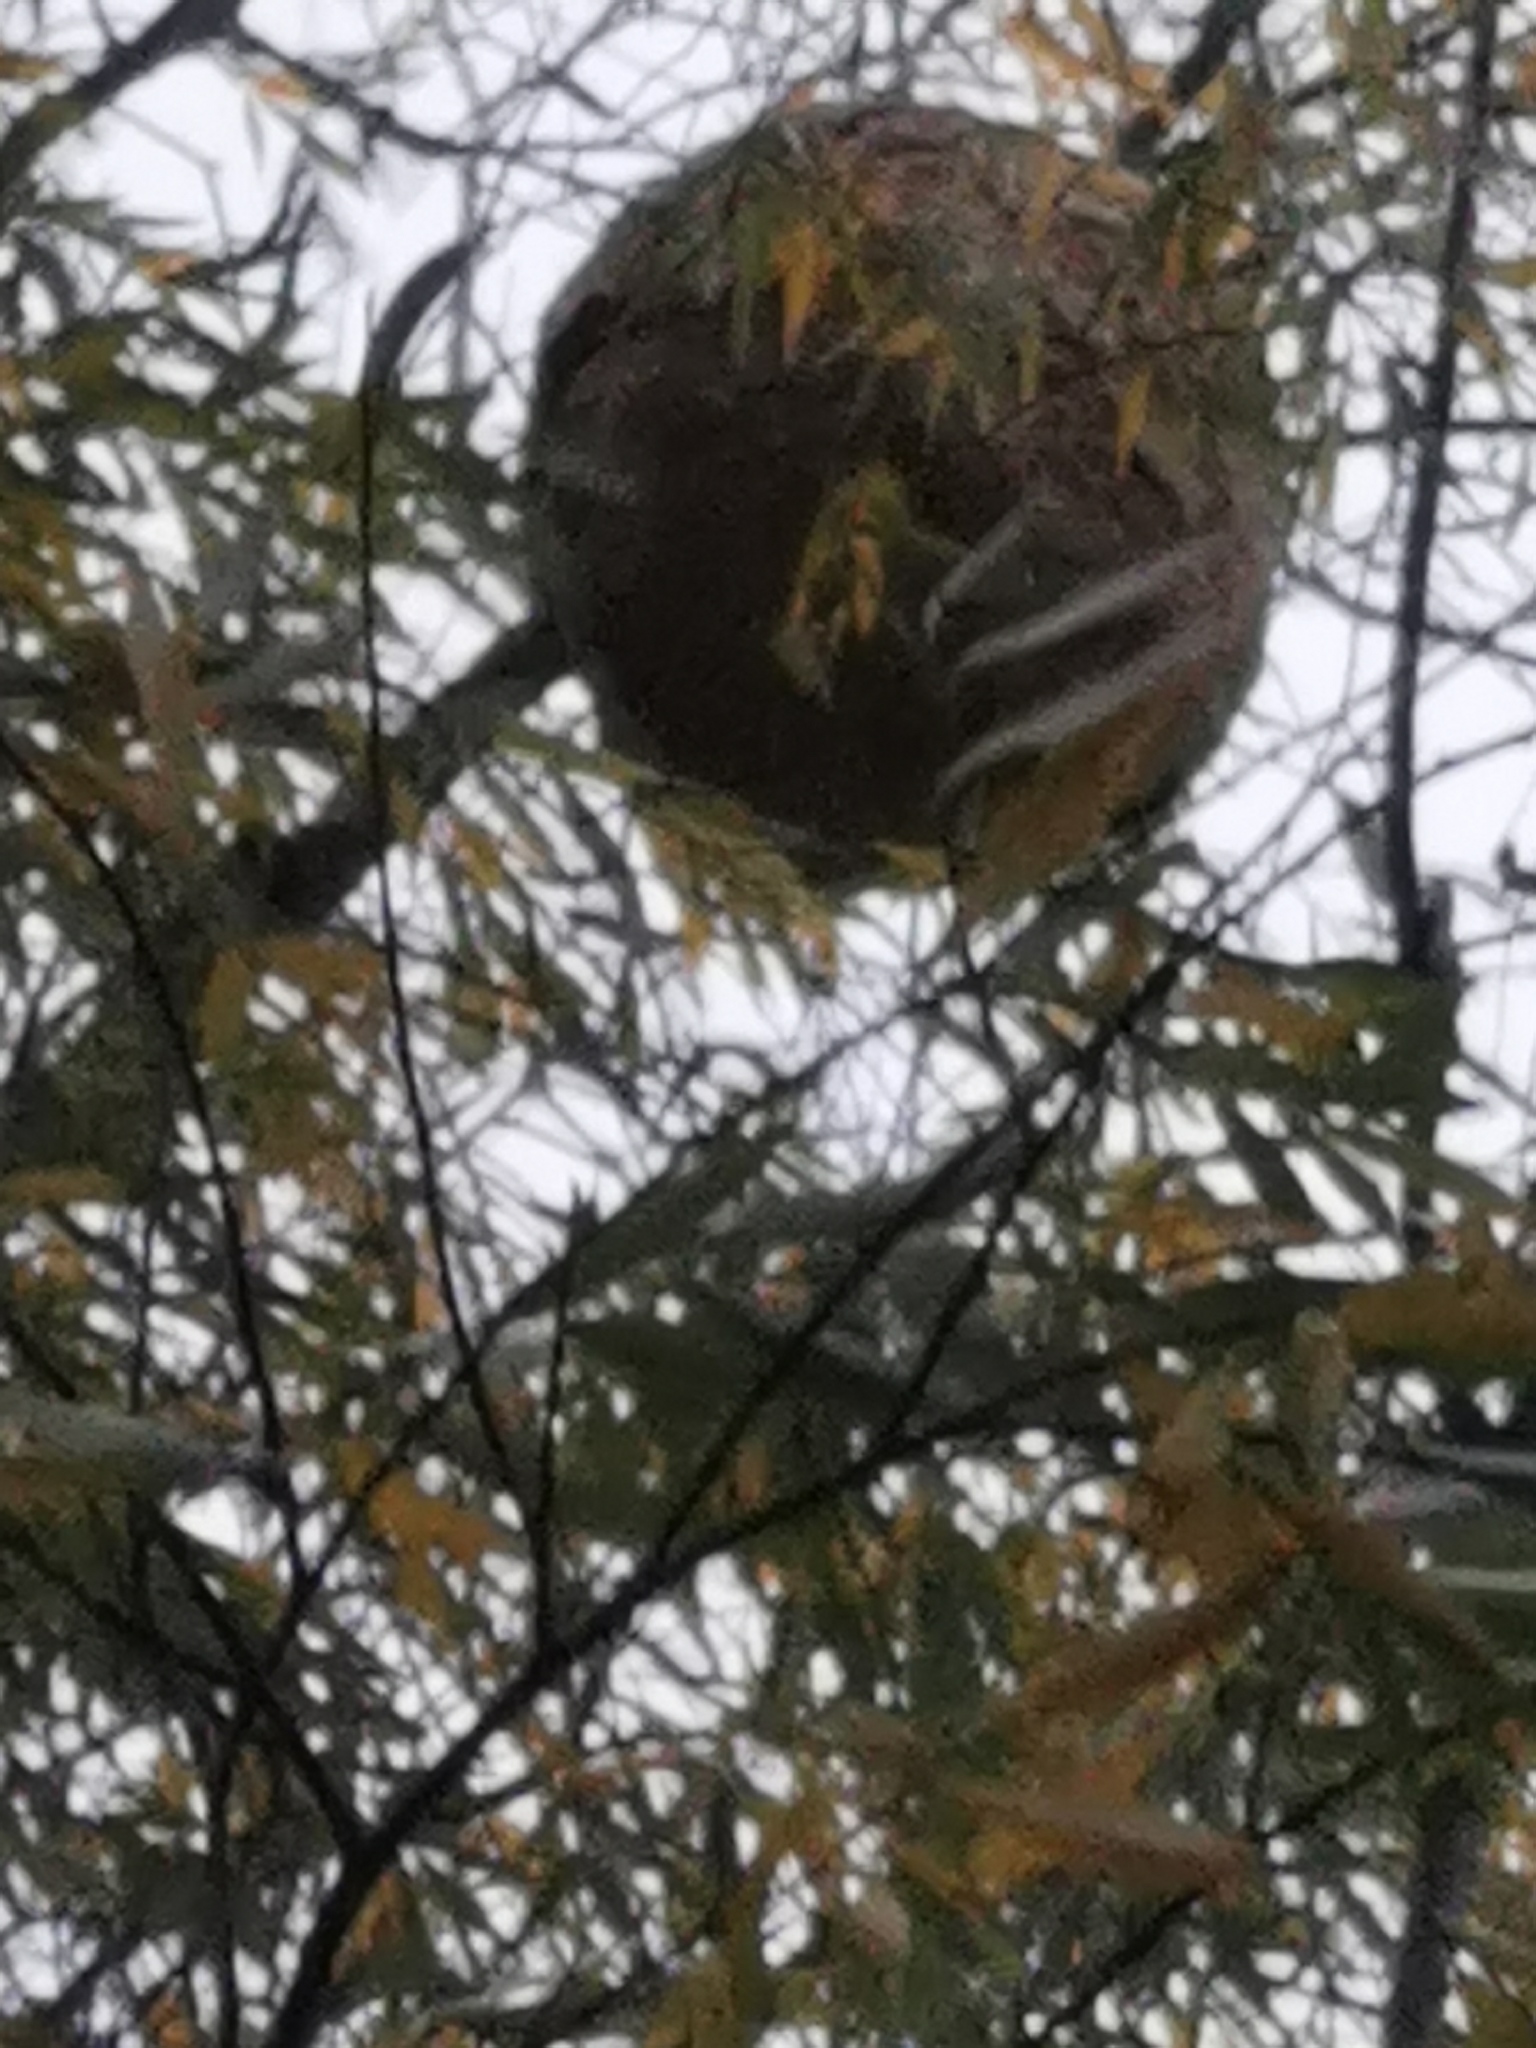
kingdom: Animalia
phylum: Arthropoda
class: Insecta
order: Hymenoptera
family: Vespidae
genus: Vespa
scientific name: Vespa velutina
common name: Asian hornet
